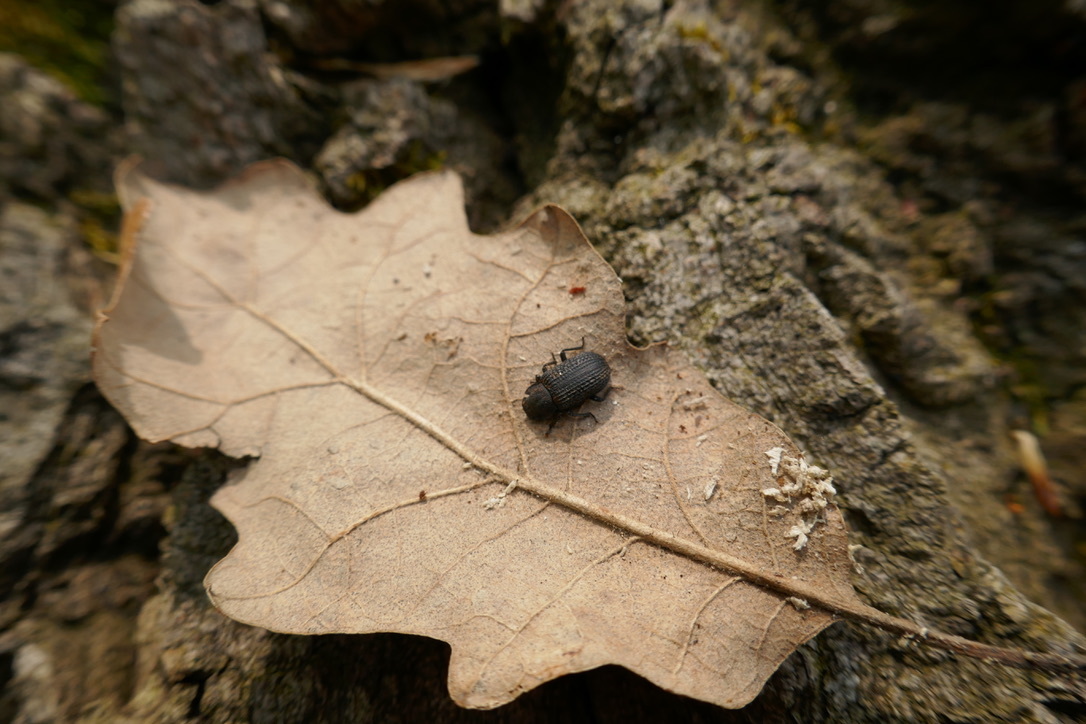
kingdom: Animalia
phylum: Arthropoda
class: Insecta
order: Coleoptera
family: Tenebrionidae
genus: Bolitophagus
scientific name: Bolitophagus reticulatus
